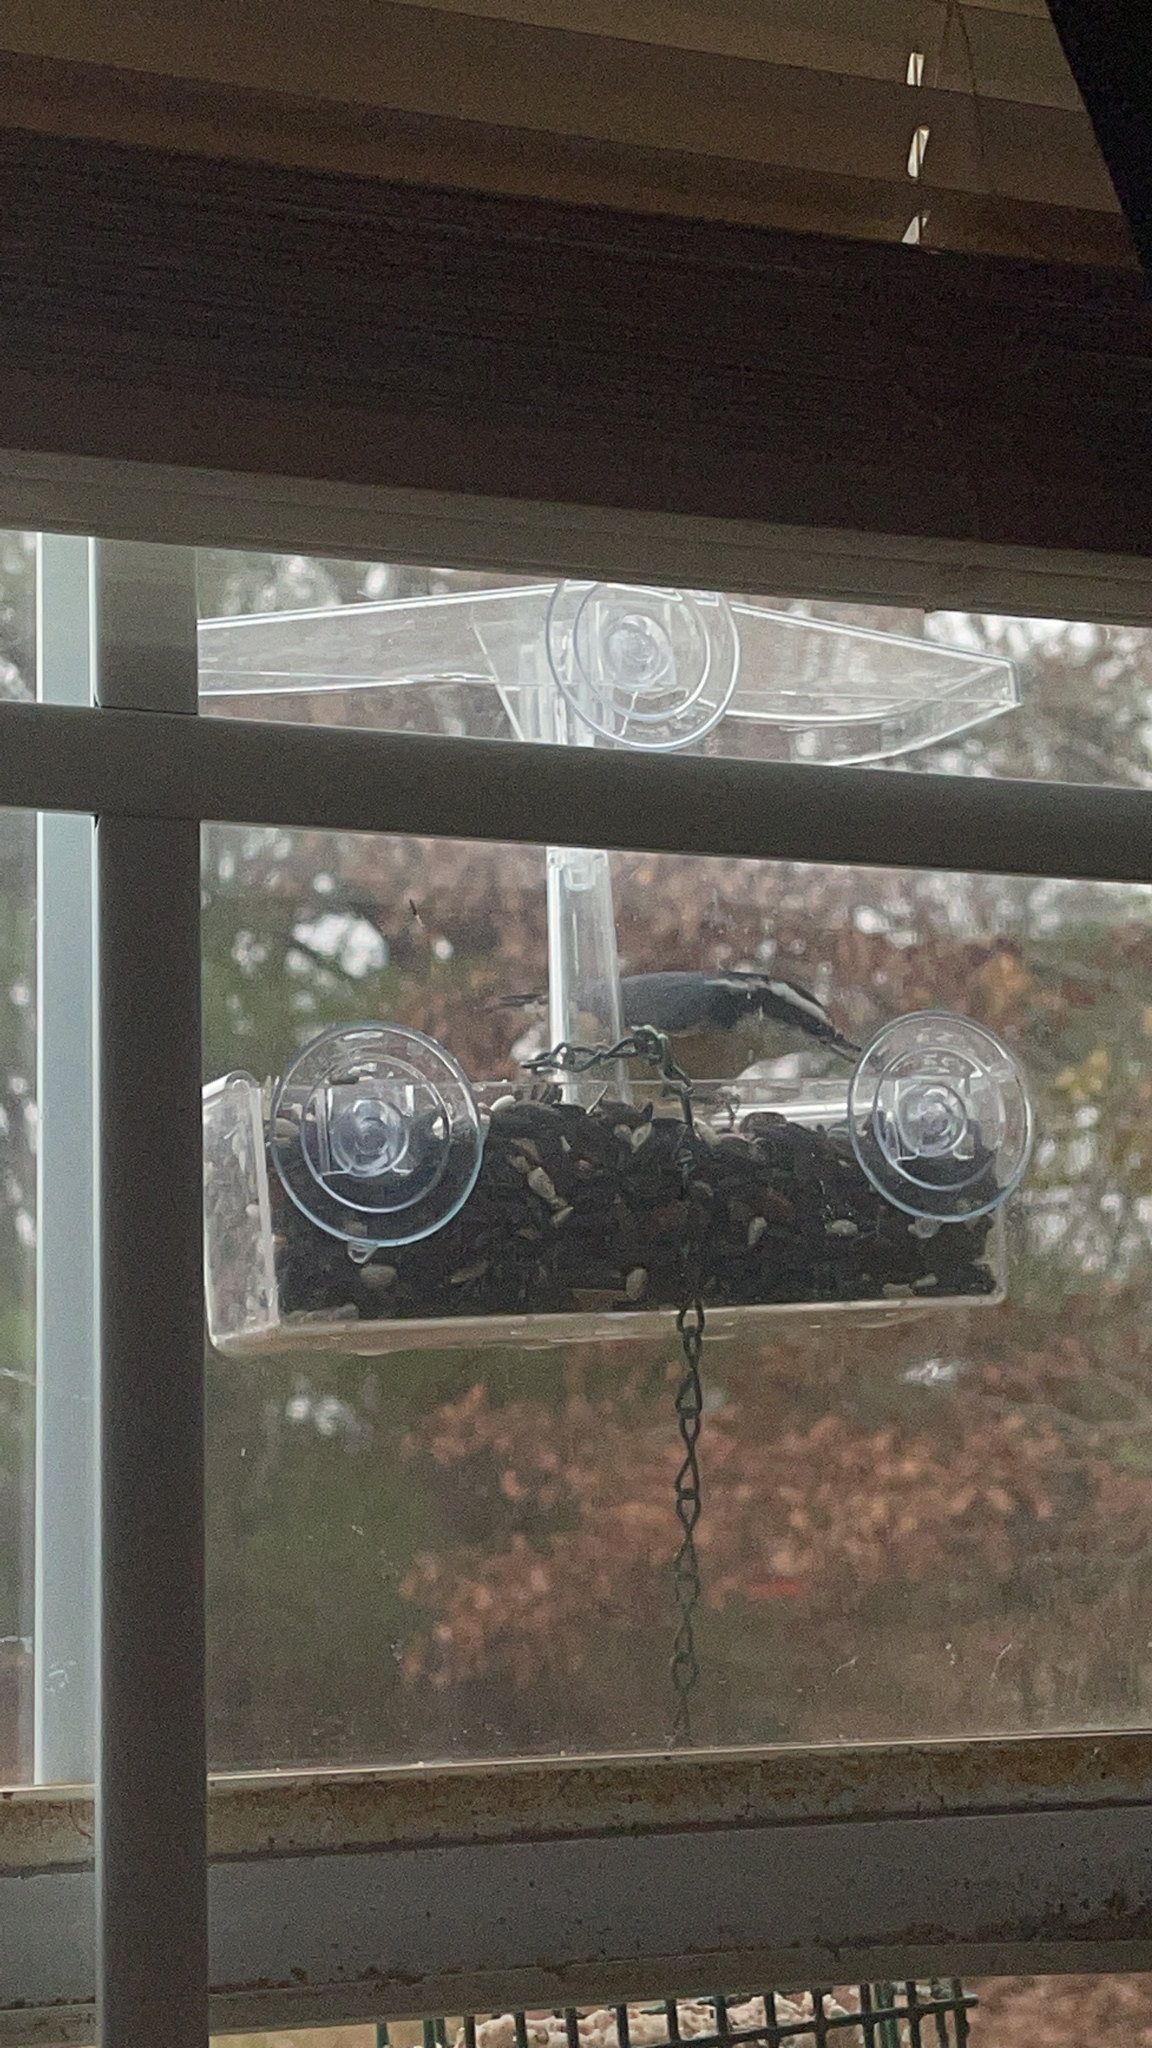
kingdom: Animalia
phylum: Chordata
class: Aves
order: Passeriformes
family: Sittidae
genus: Sitta
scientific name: Sitta canadensis
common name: Red-breasted nuthatch
